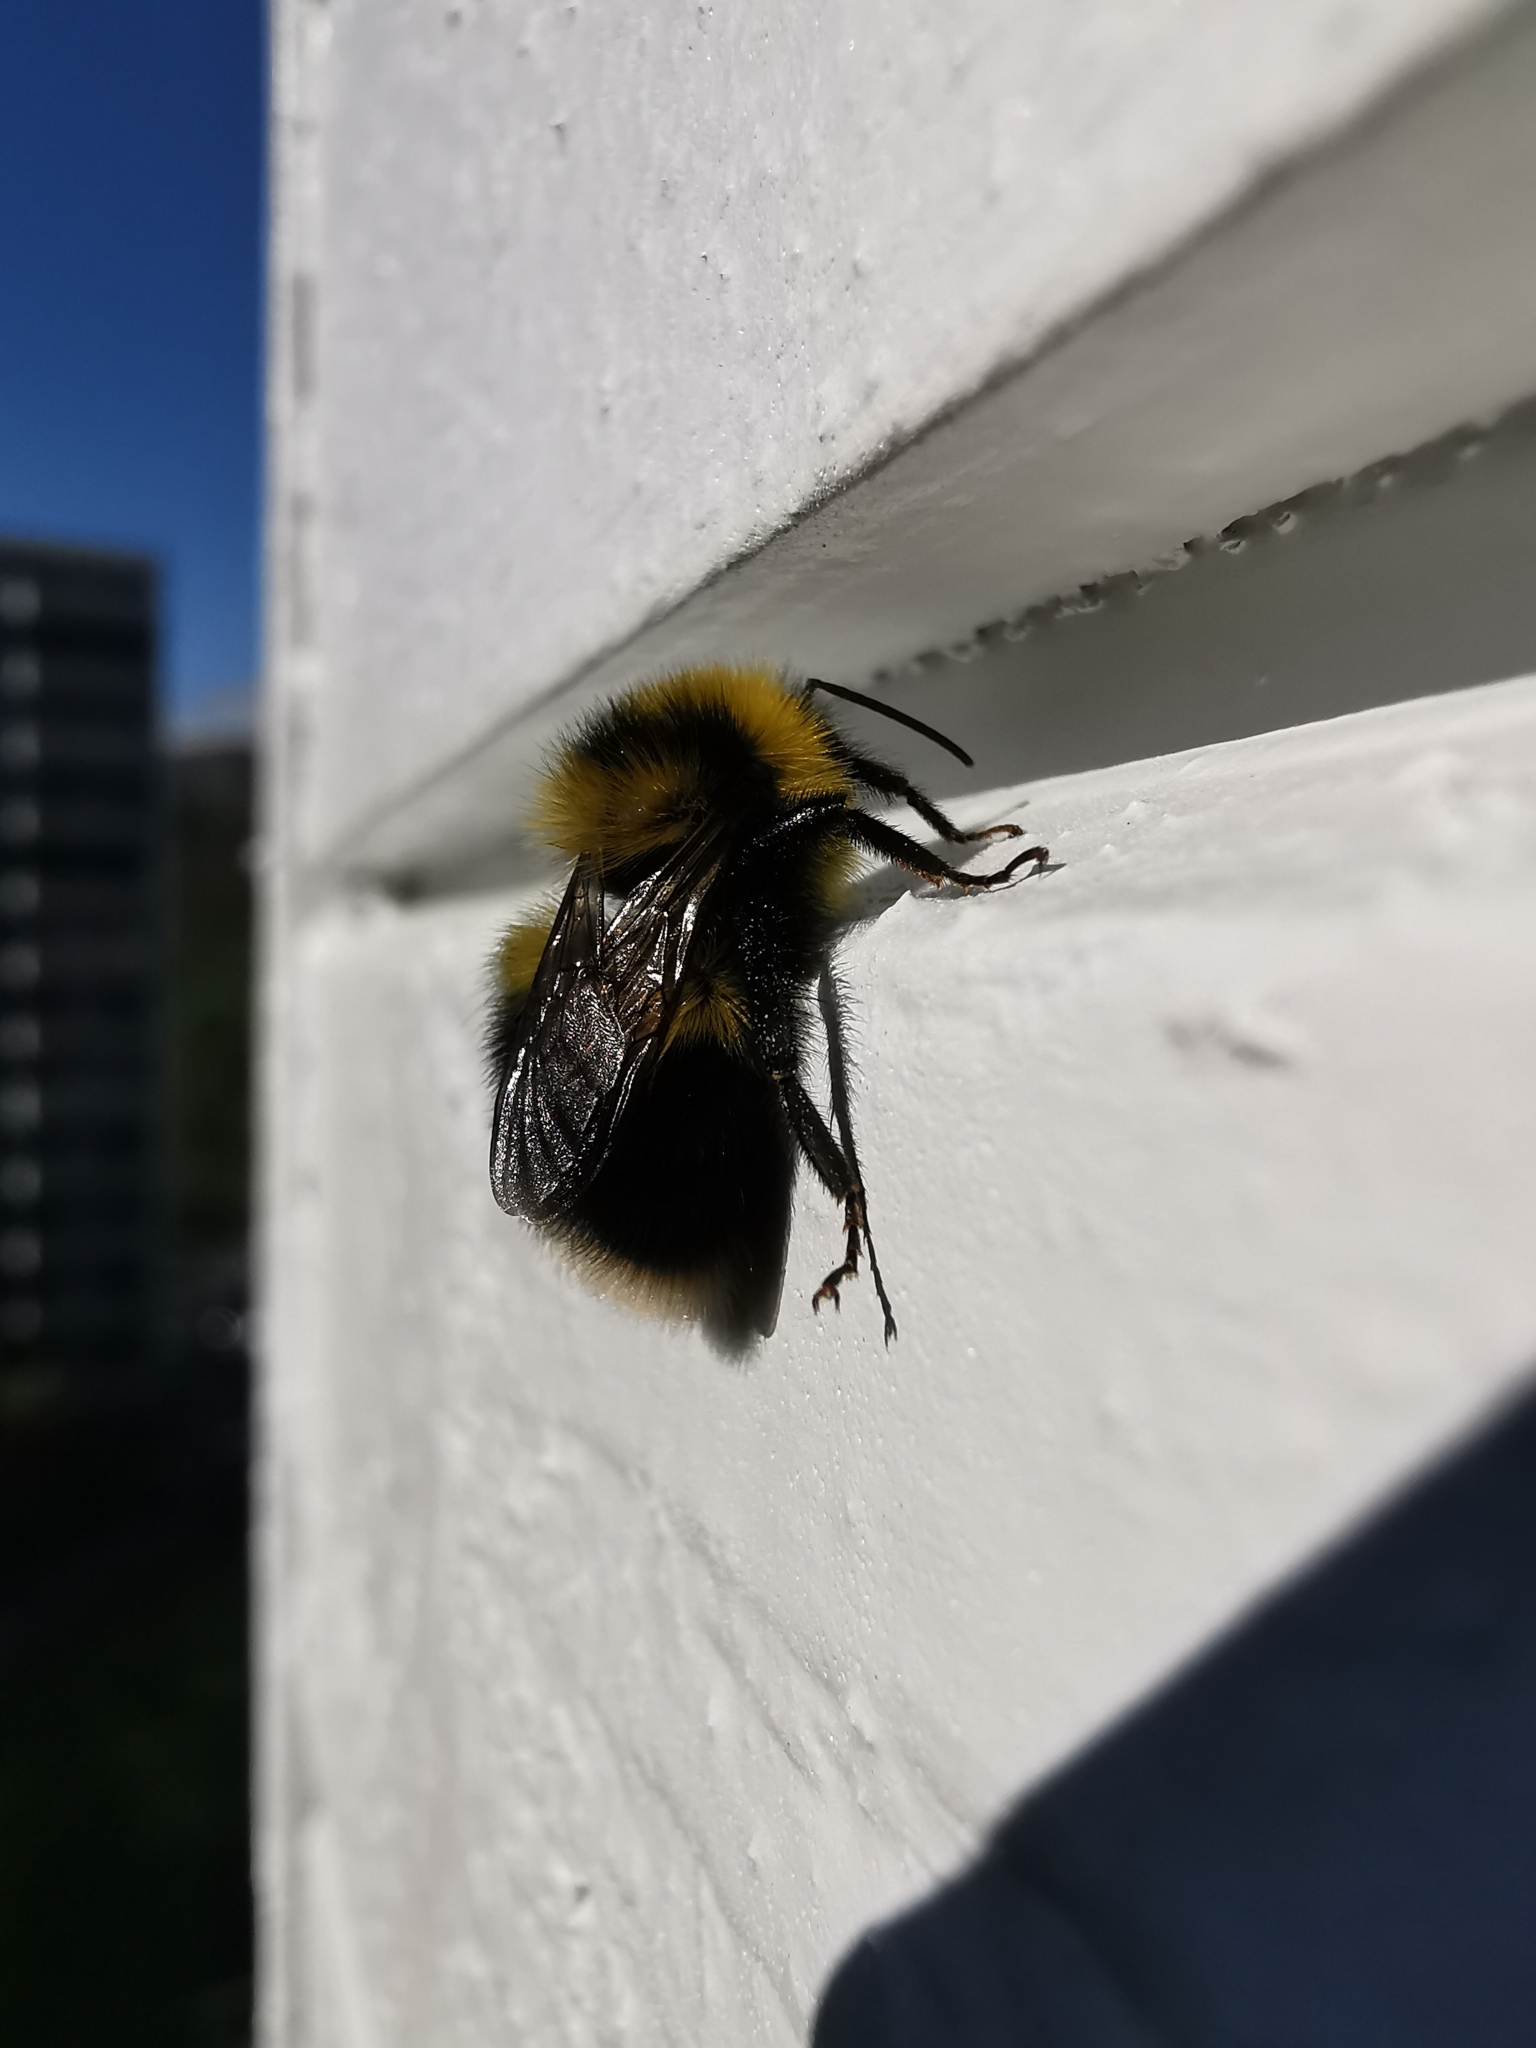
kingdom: Animalia
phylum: Arthropoda
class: Insecta
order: Hymenoptera
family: Apidae
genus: Bombus
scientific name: Bombus jonellus
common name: Heath humble-bee
